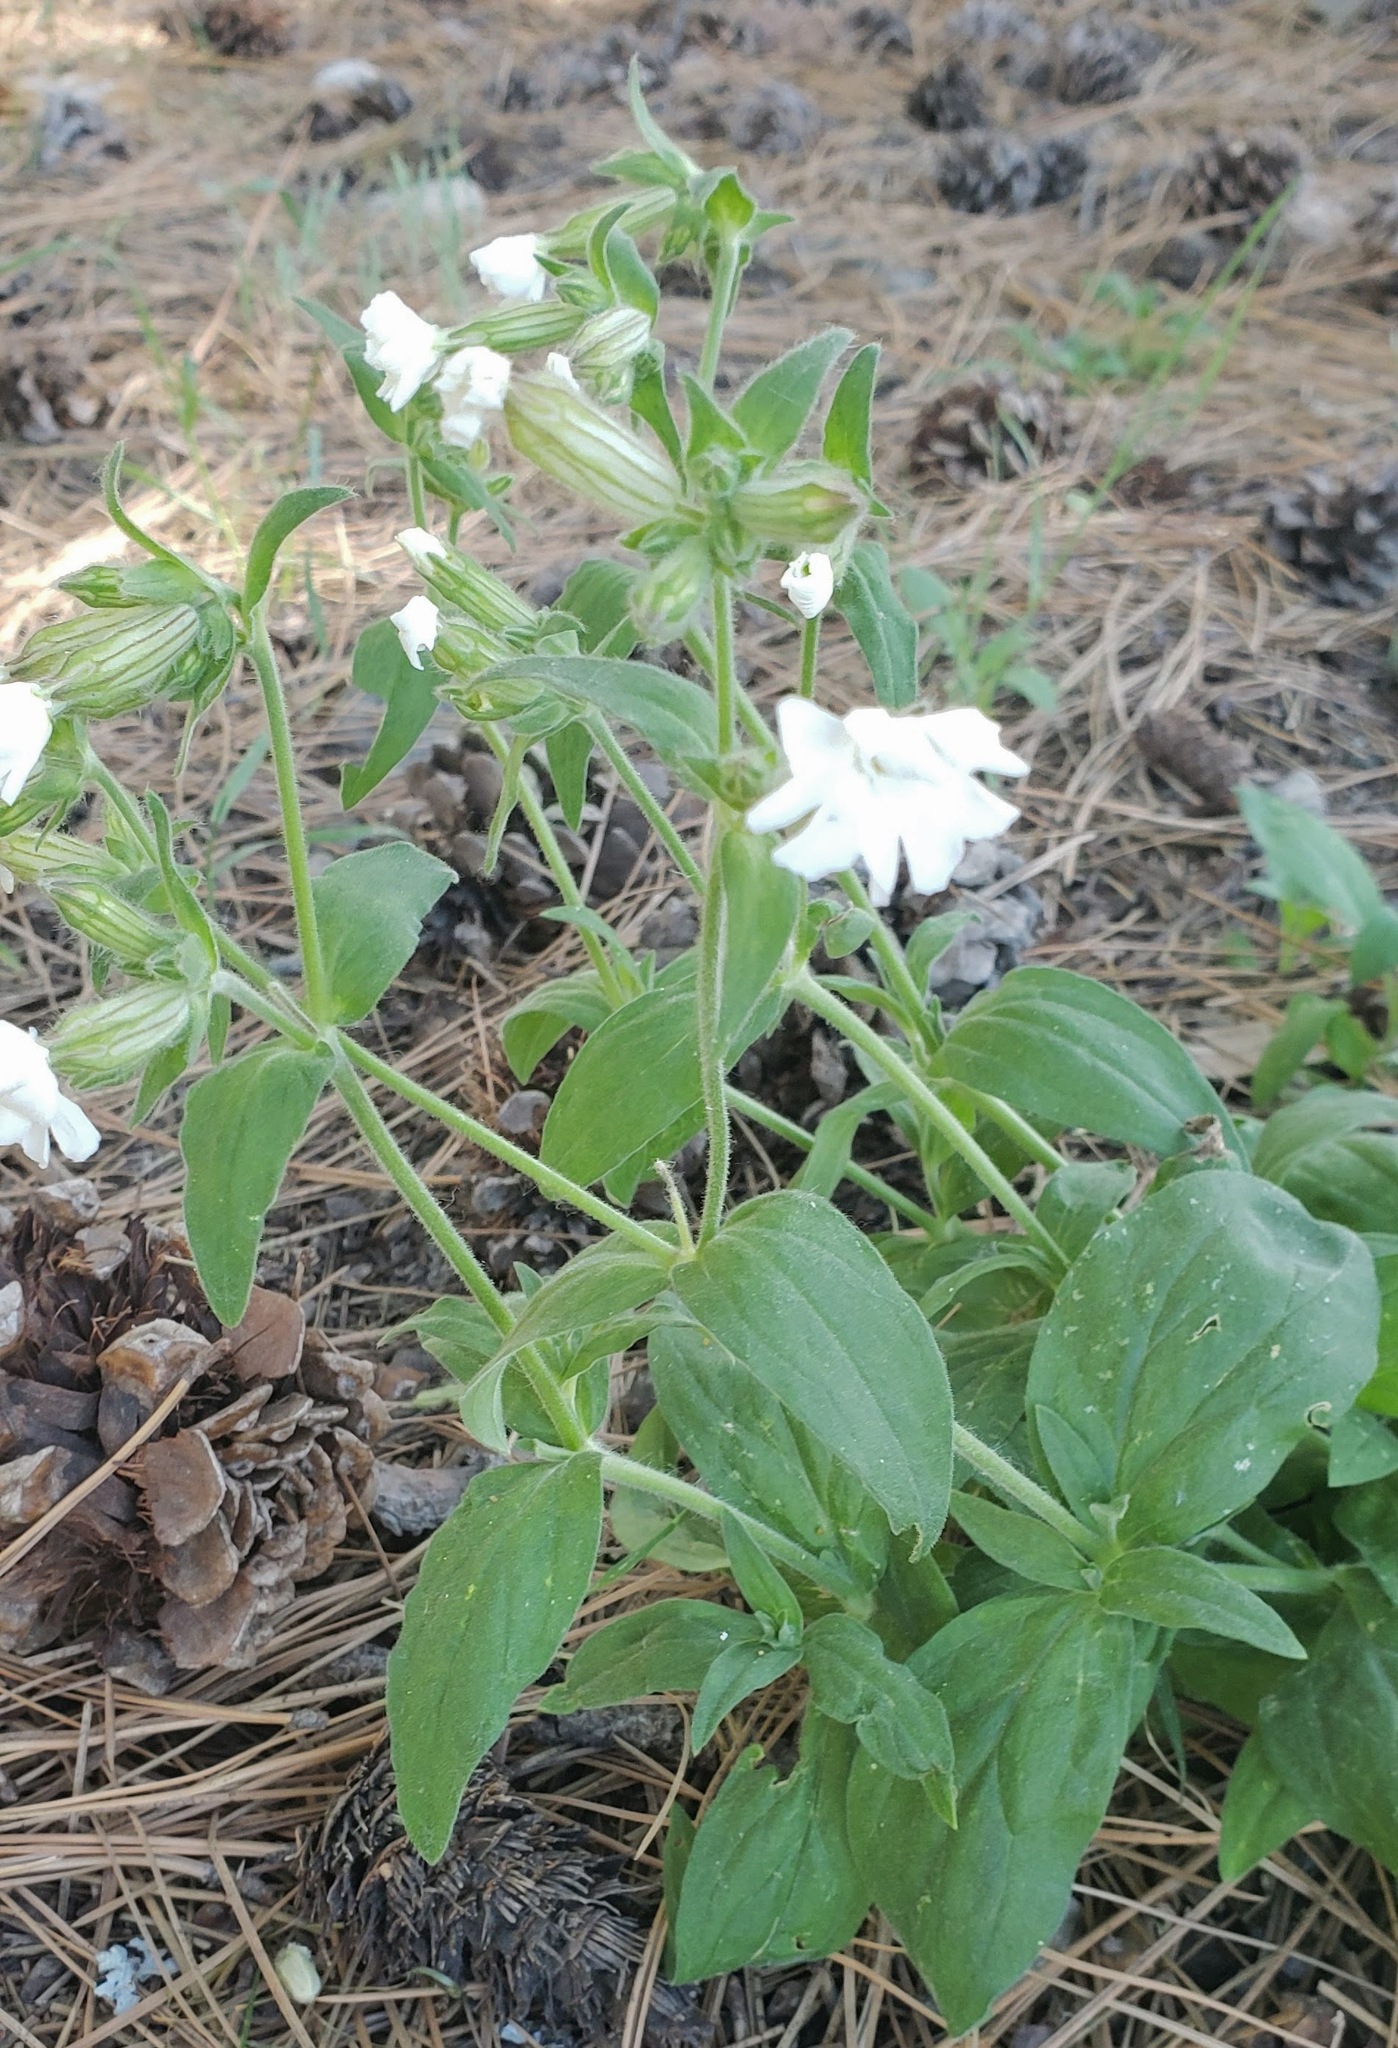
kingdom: Plantae
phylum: Tracheophyta
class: Magnoliopsida
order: Caryophyllales
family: Caryophyllaceae
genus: Silene
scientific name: Silene latifolia
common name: White campion
